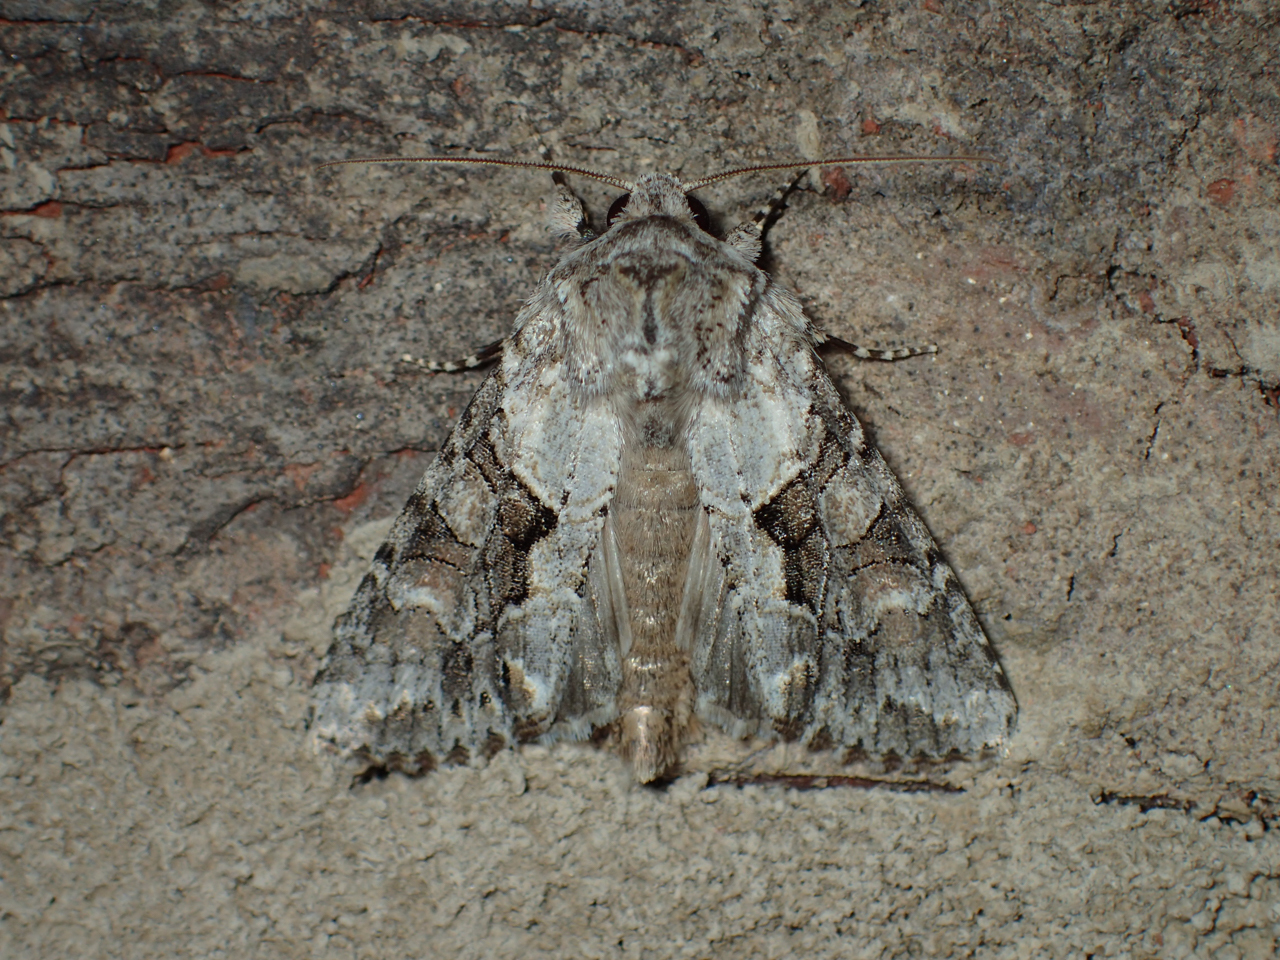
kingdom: Animalia
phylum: Arthropoda
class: Insecta
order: Lepidoptera
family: Noctuidae
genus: Achatia
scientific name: Achatia distincta
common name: Distinct quaker
